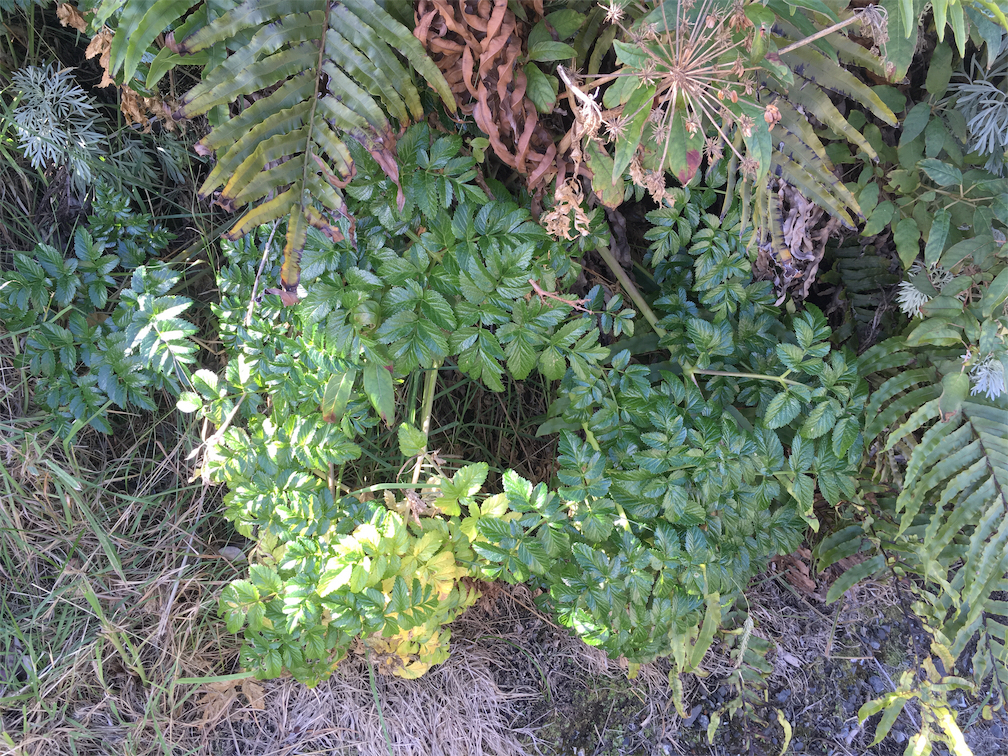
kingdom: Plantae
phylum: Tracheophyta
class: Magnoliopsida
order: Apiales
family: Apiaceae
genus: Angelica
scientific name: Angelica pachycarpa
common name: Portuguese angelica
